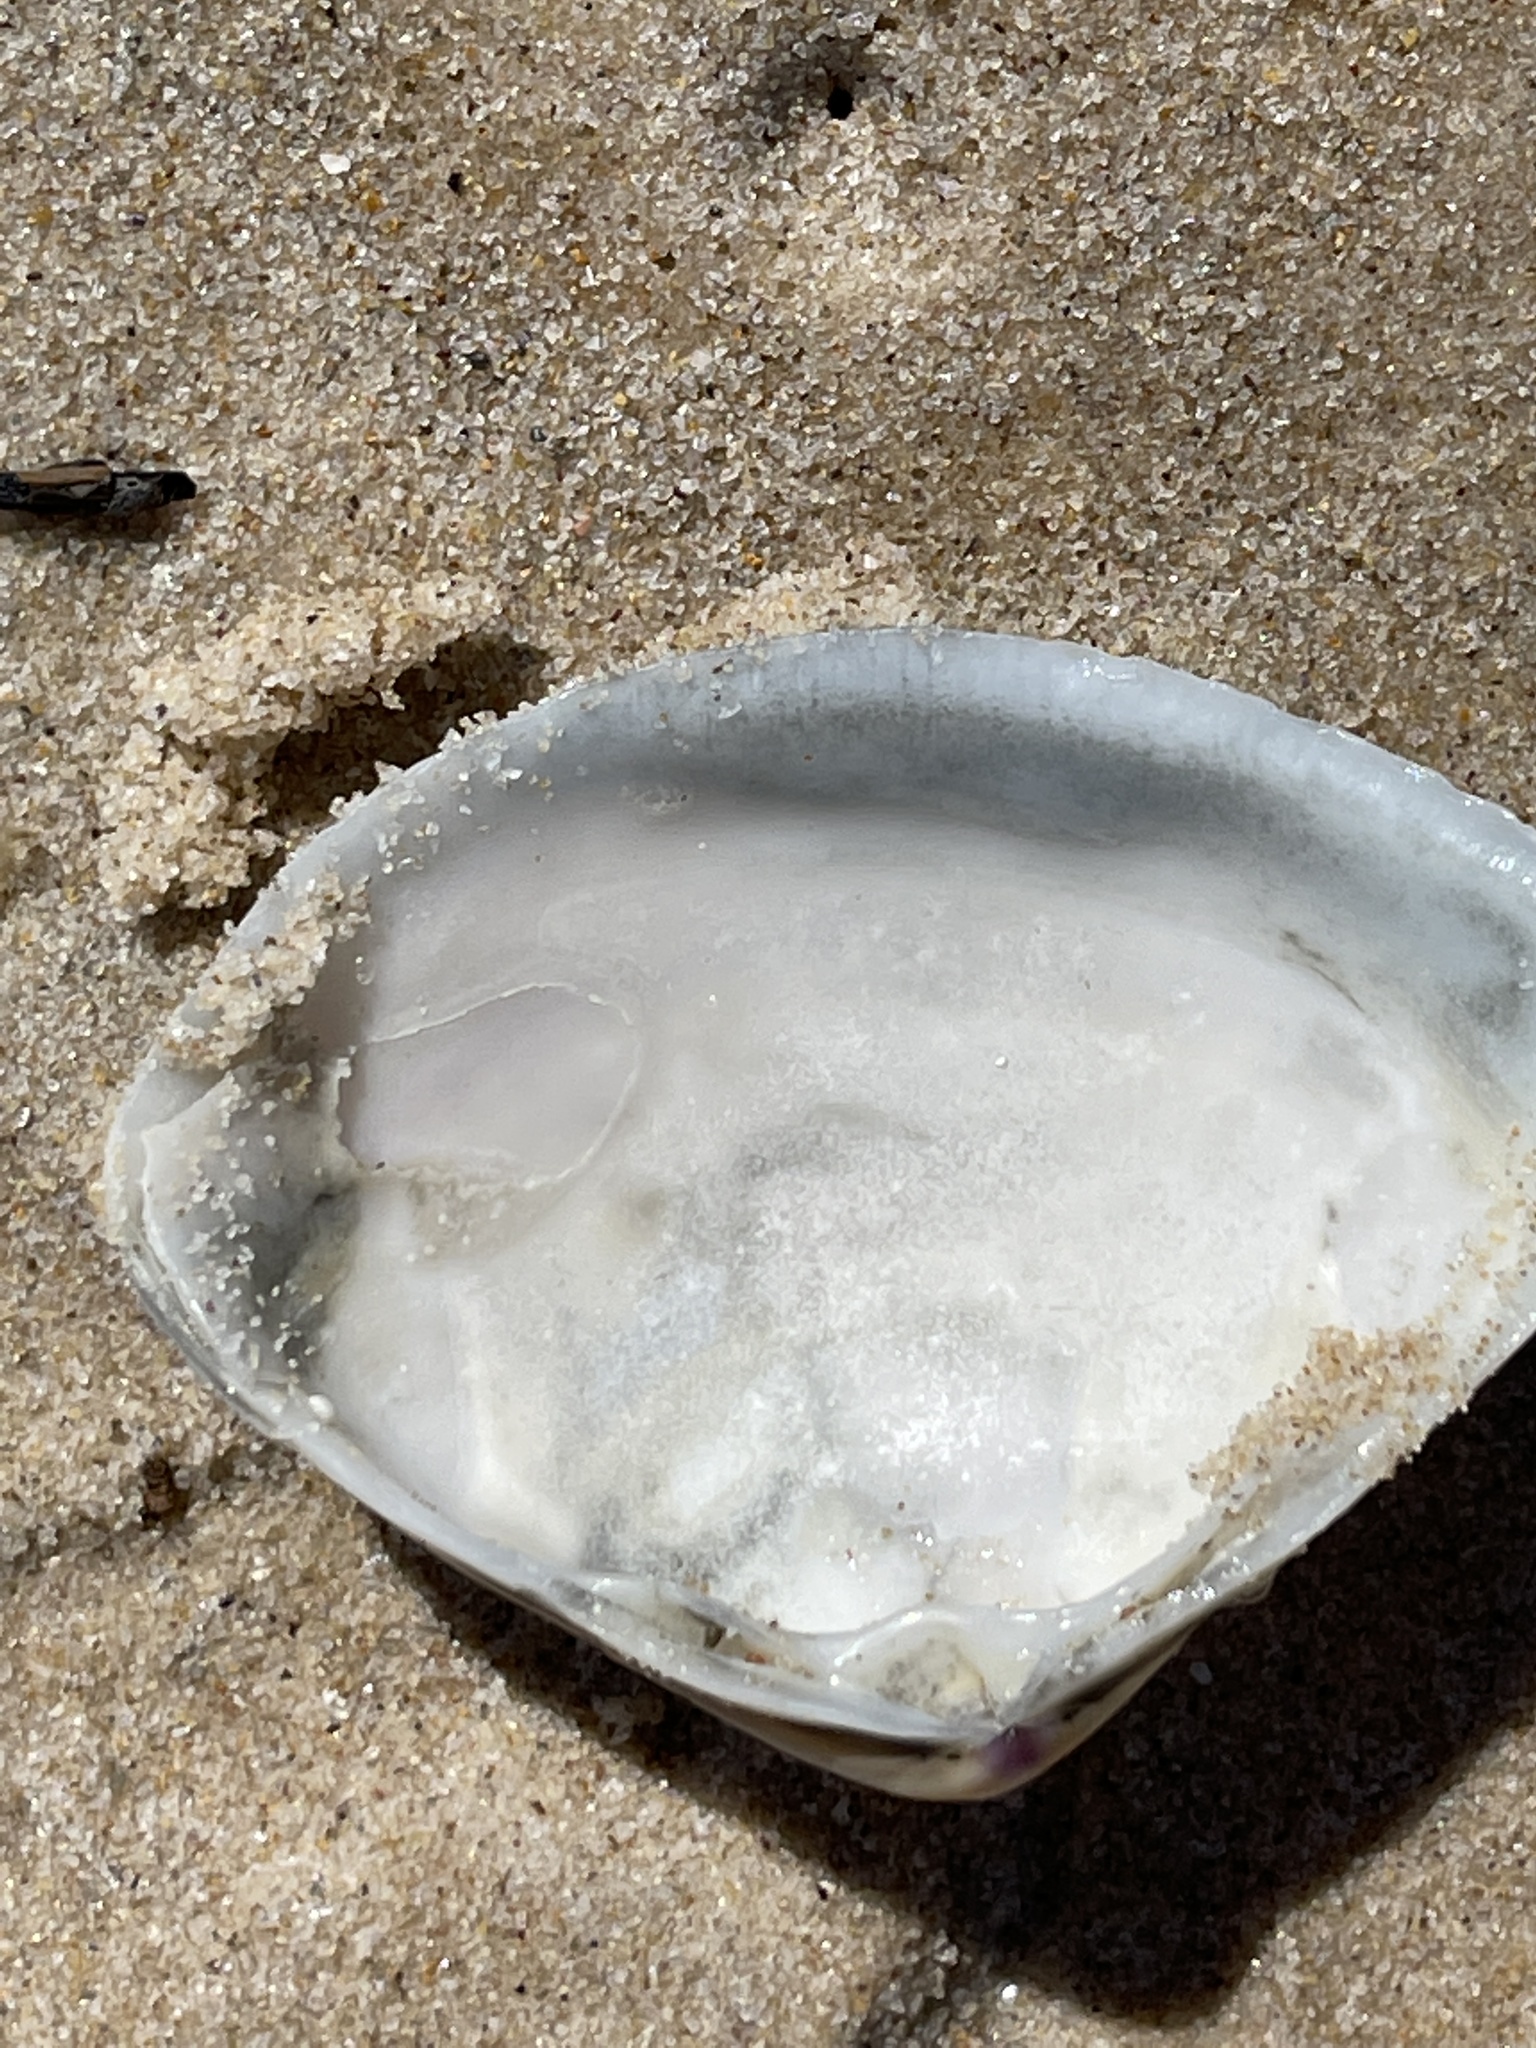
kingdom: Animalia
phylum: Mollusca
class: Bivalvia
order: Venerida
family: Mactridae
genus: Austromactra
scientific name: Austromactra rufescens
